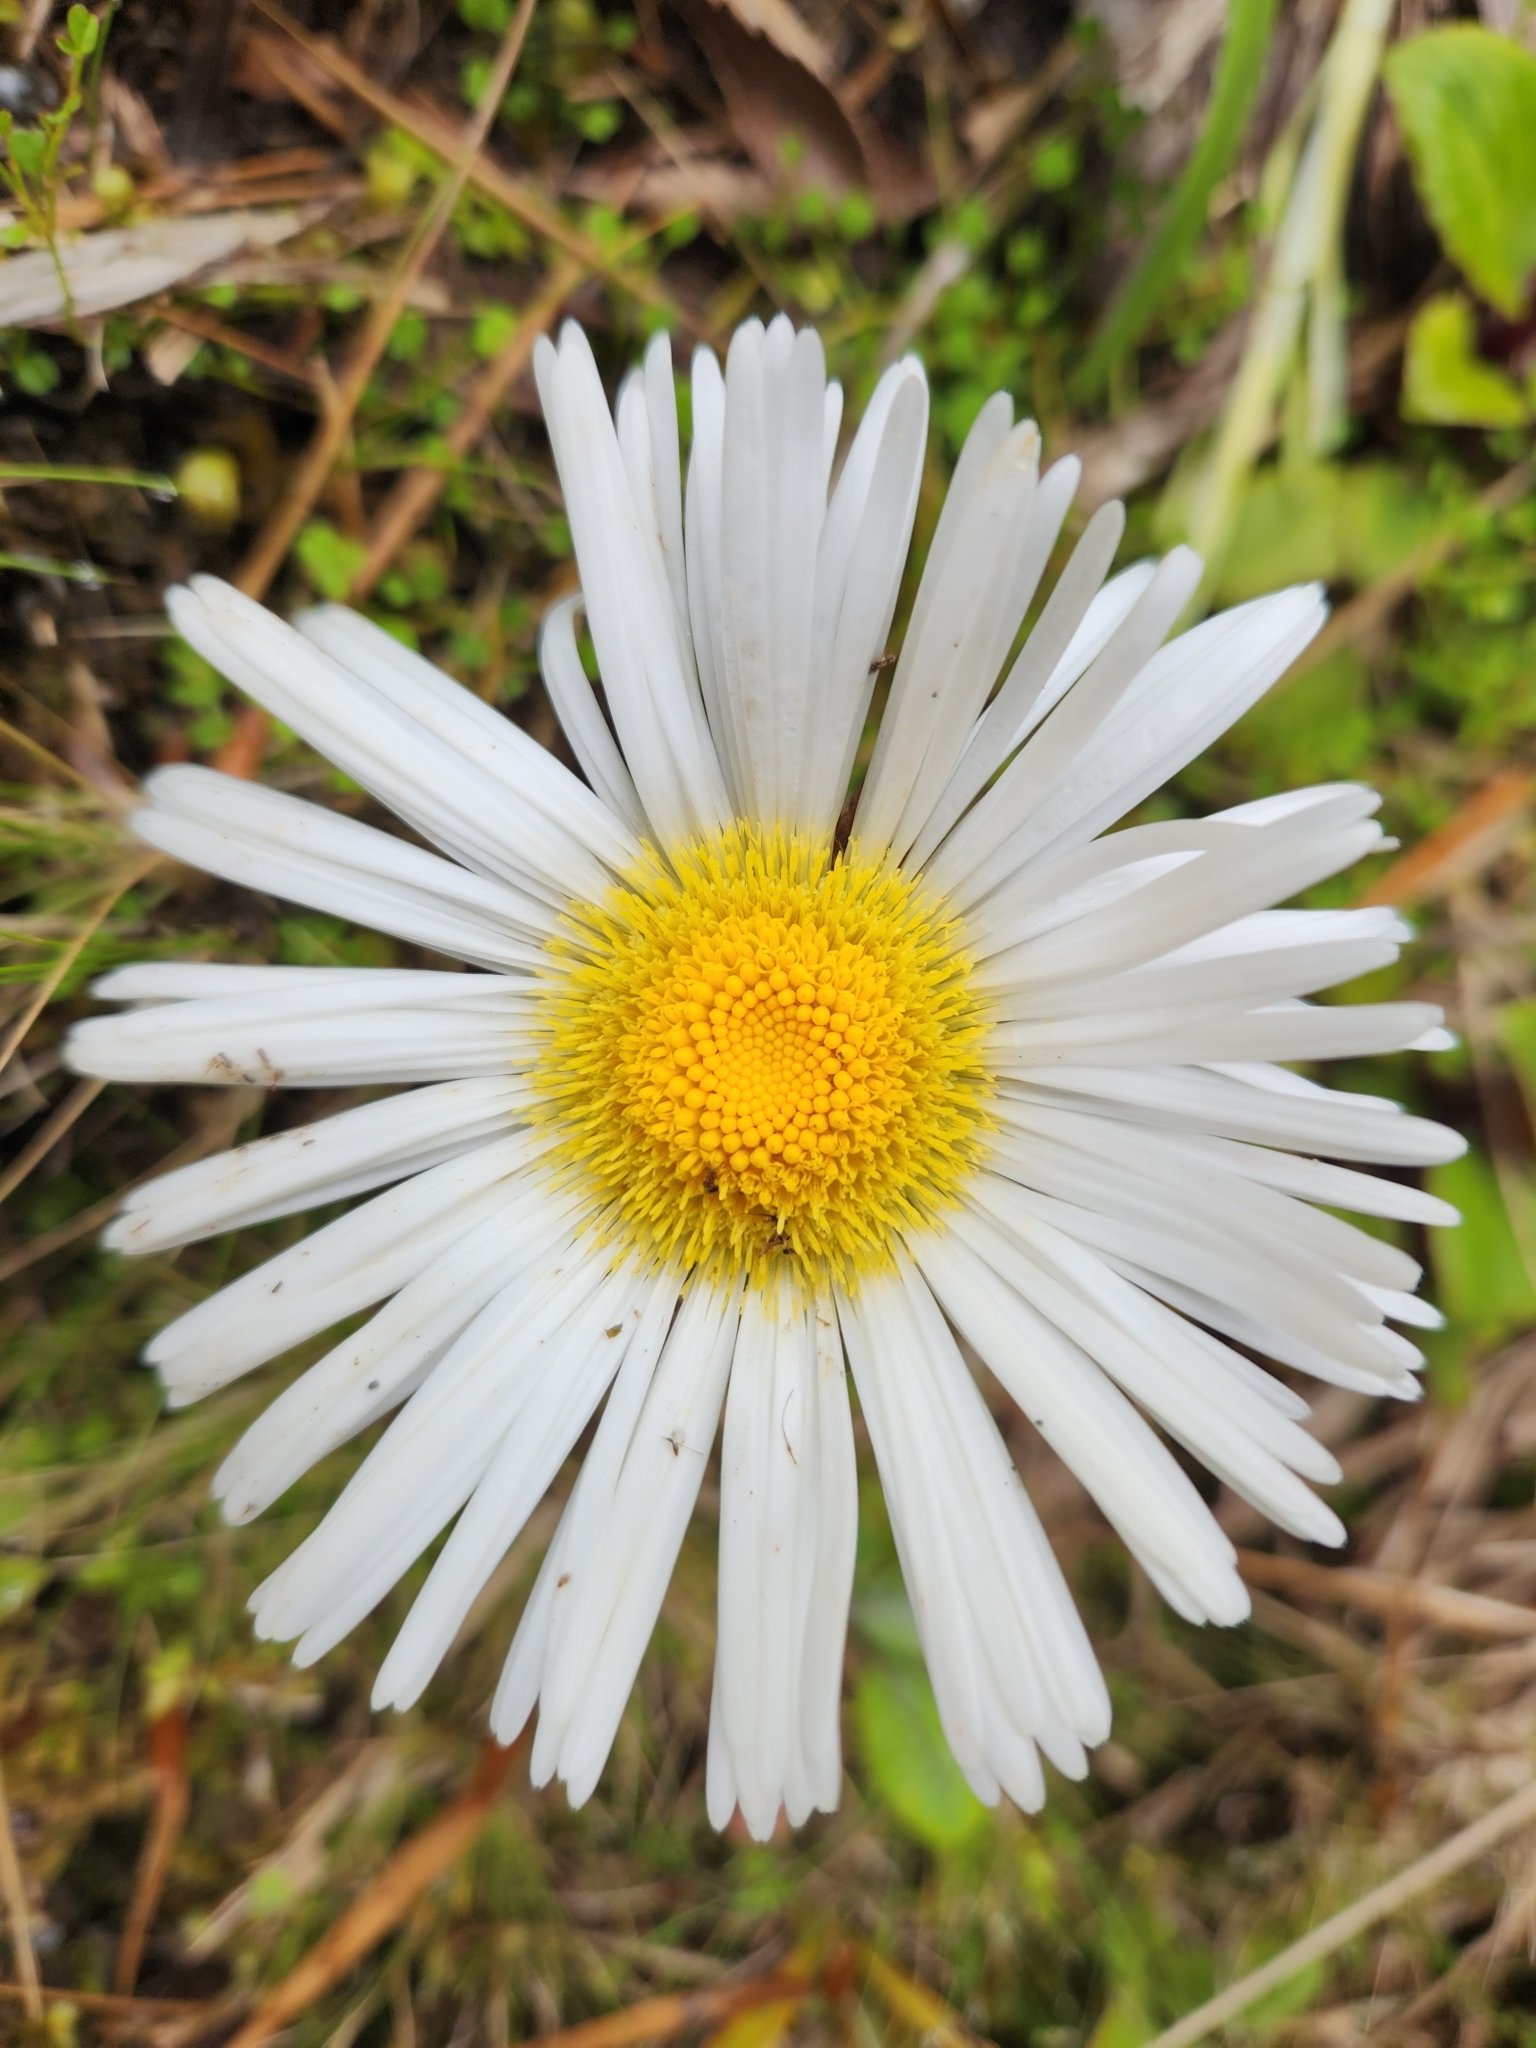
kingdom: Plantae
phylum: Tracheophyta
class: Magnoliopsida
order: Asterales
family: Asteraceae
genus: Celmisia
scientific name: Celmisia semicordata
